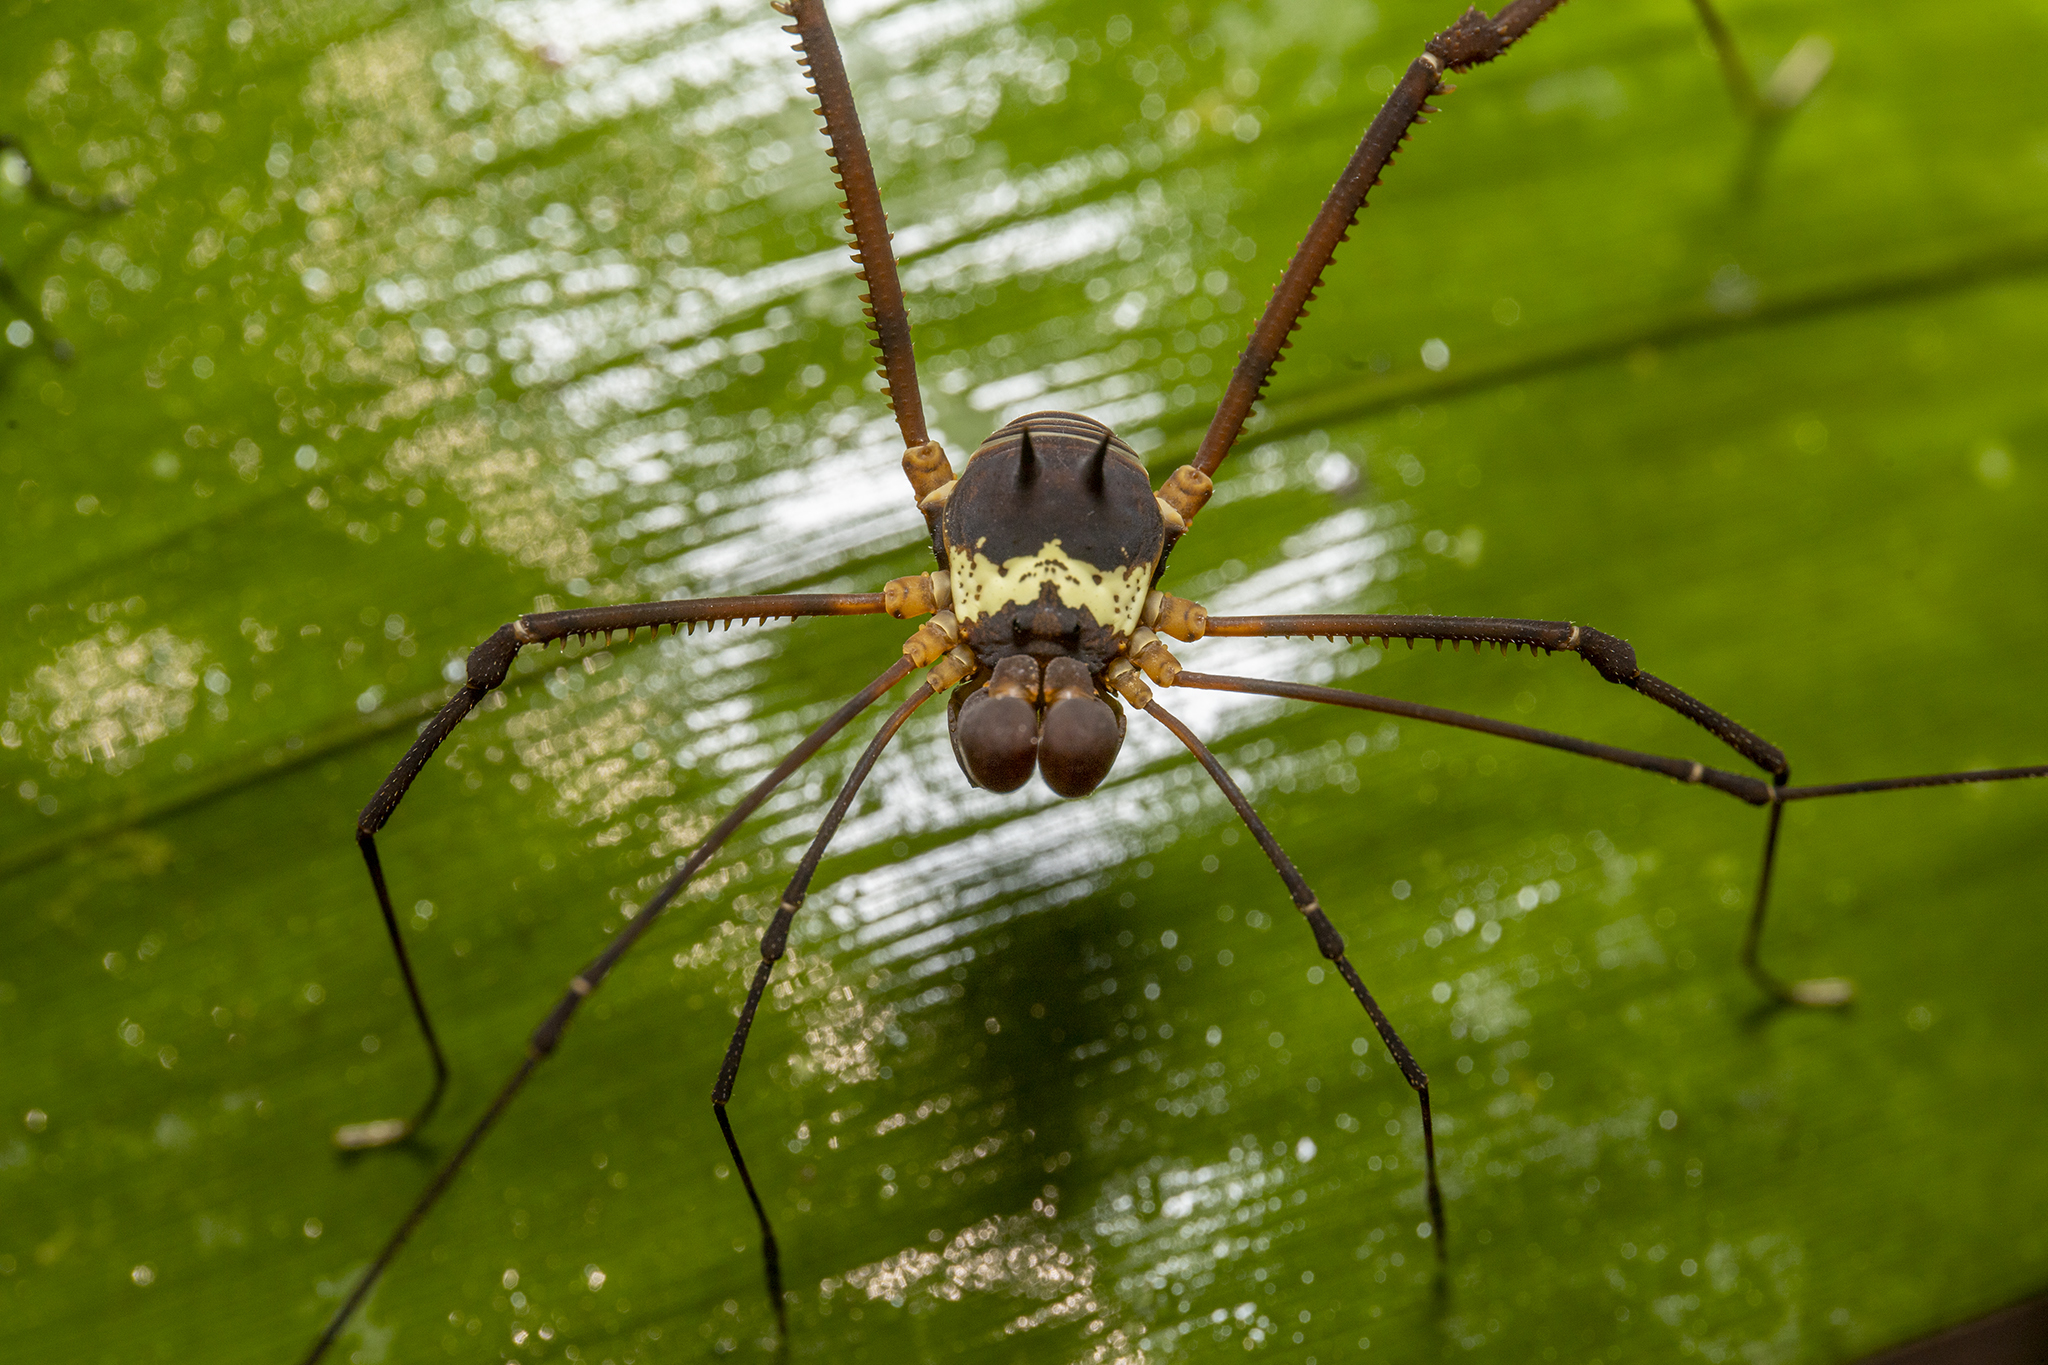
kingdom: Animalia
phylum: Arthropoda
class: Arachnida
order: Opiliones
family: Cosmetidae
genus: Meterginus
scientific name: Meterginus serratus
